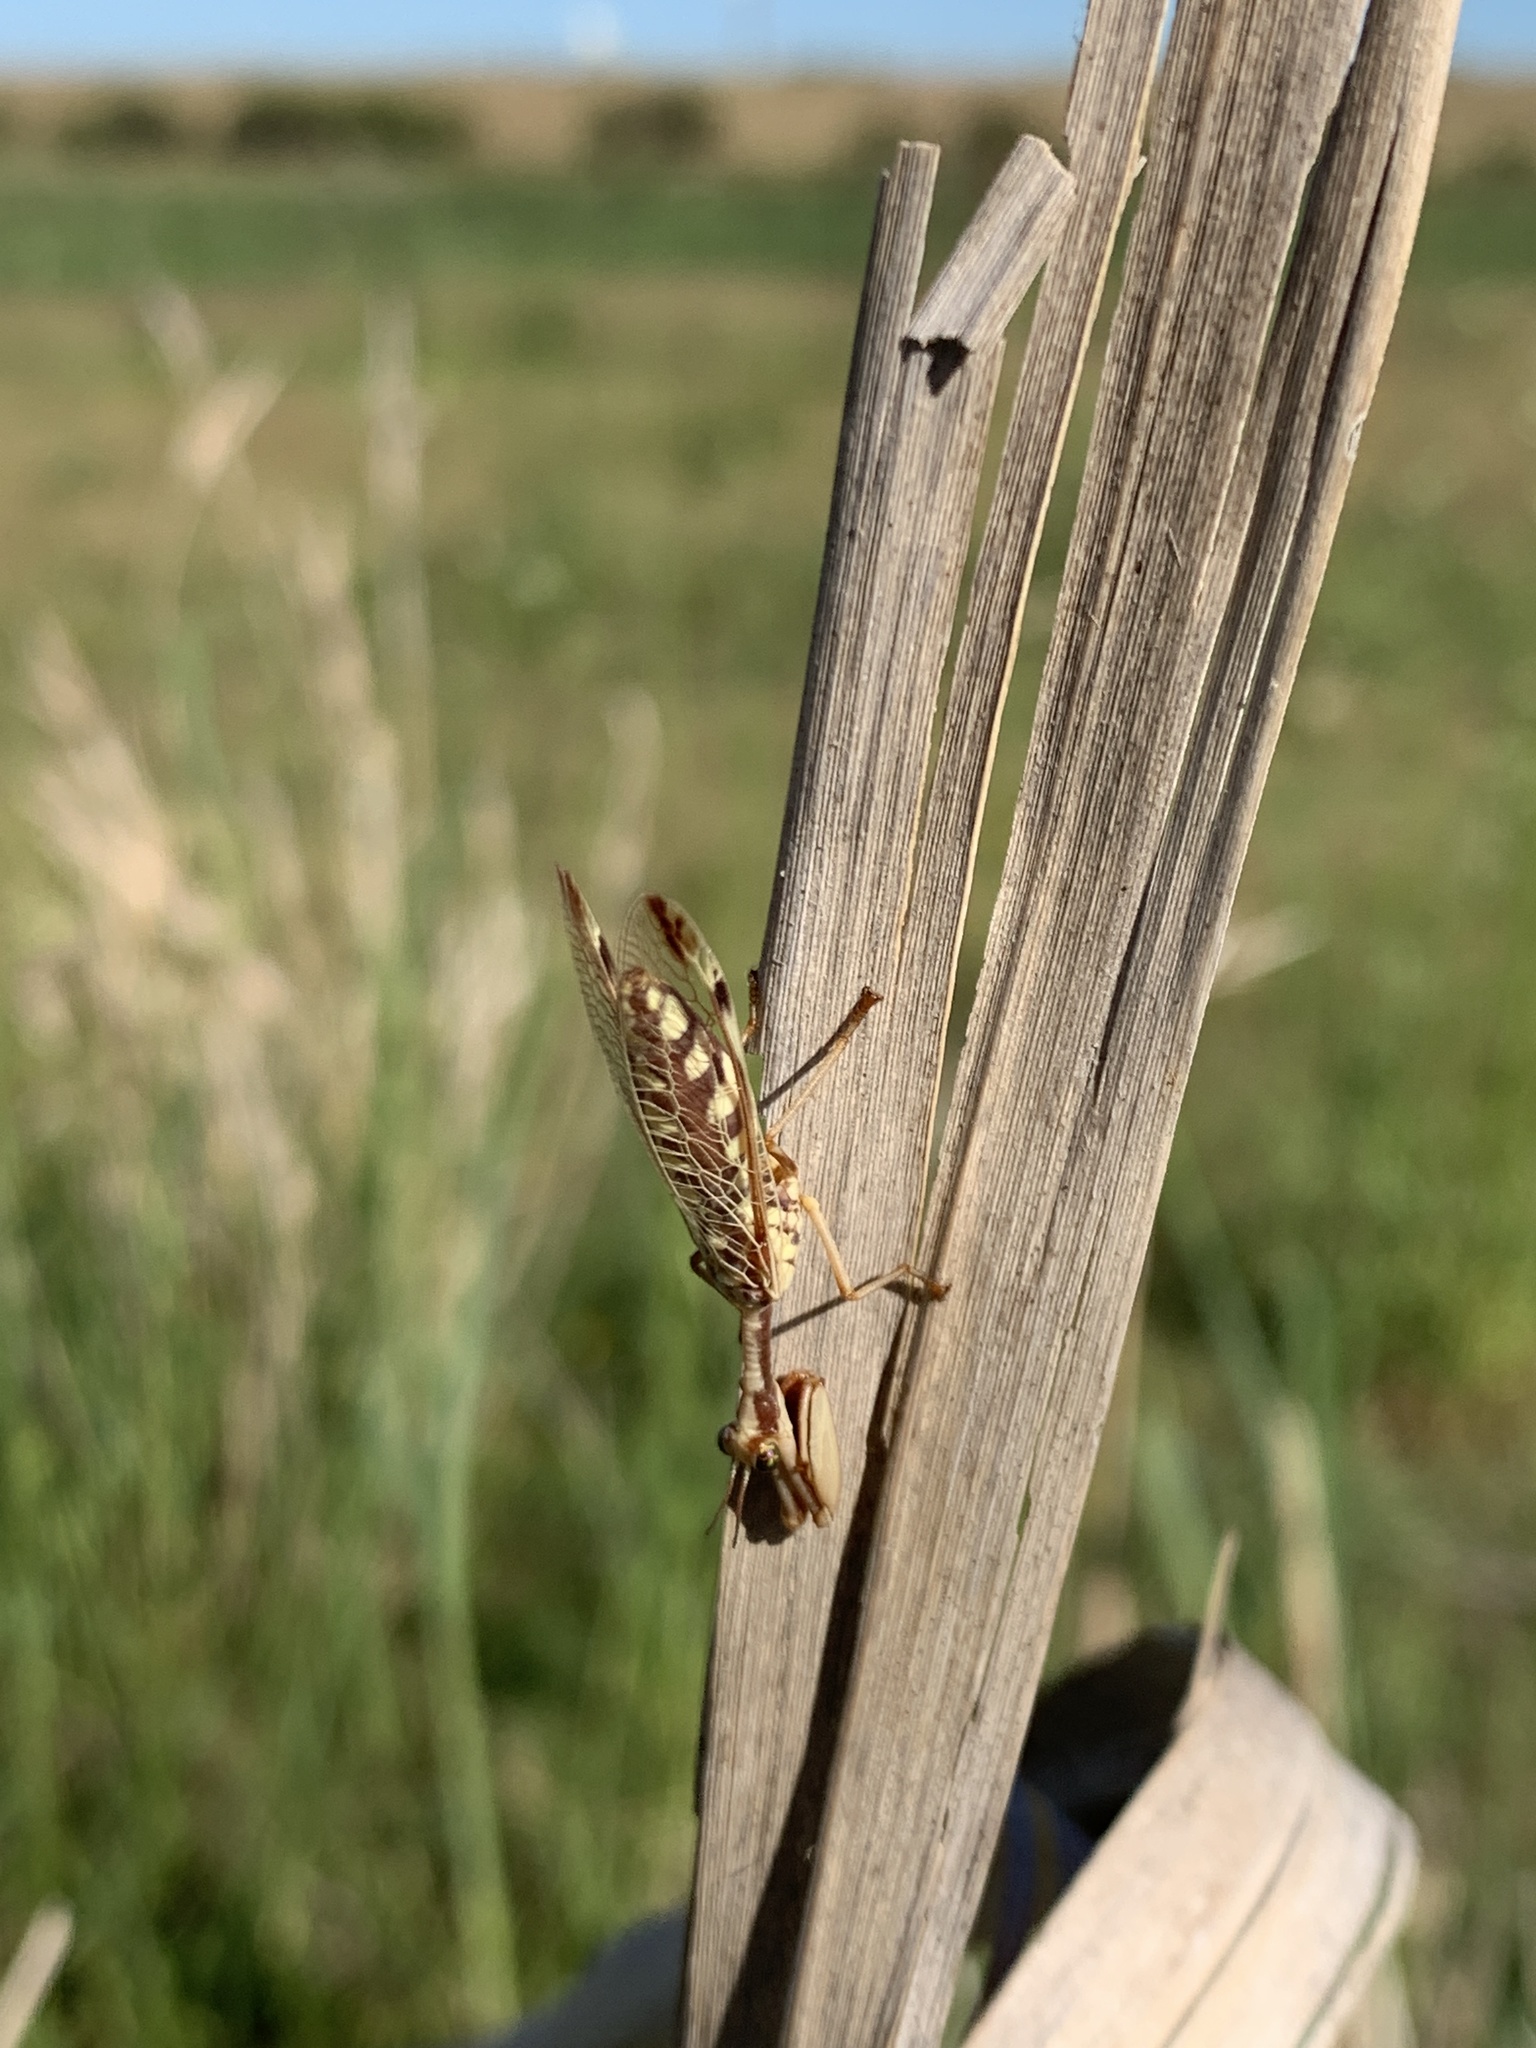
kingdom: Animalia
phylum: Arthropoda
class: Insecta
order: Neuroptera
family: Mantispidae
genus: Paramantispa
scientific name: Paramantispa prolixa
